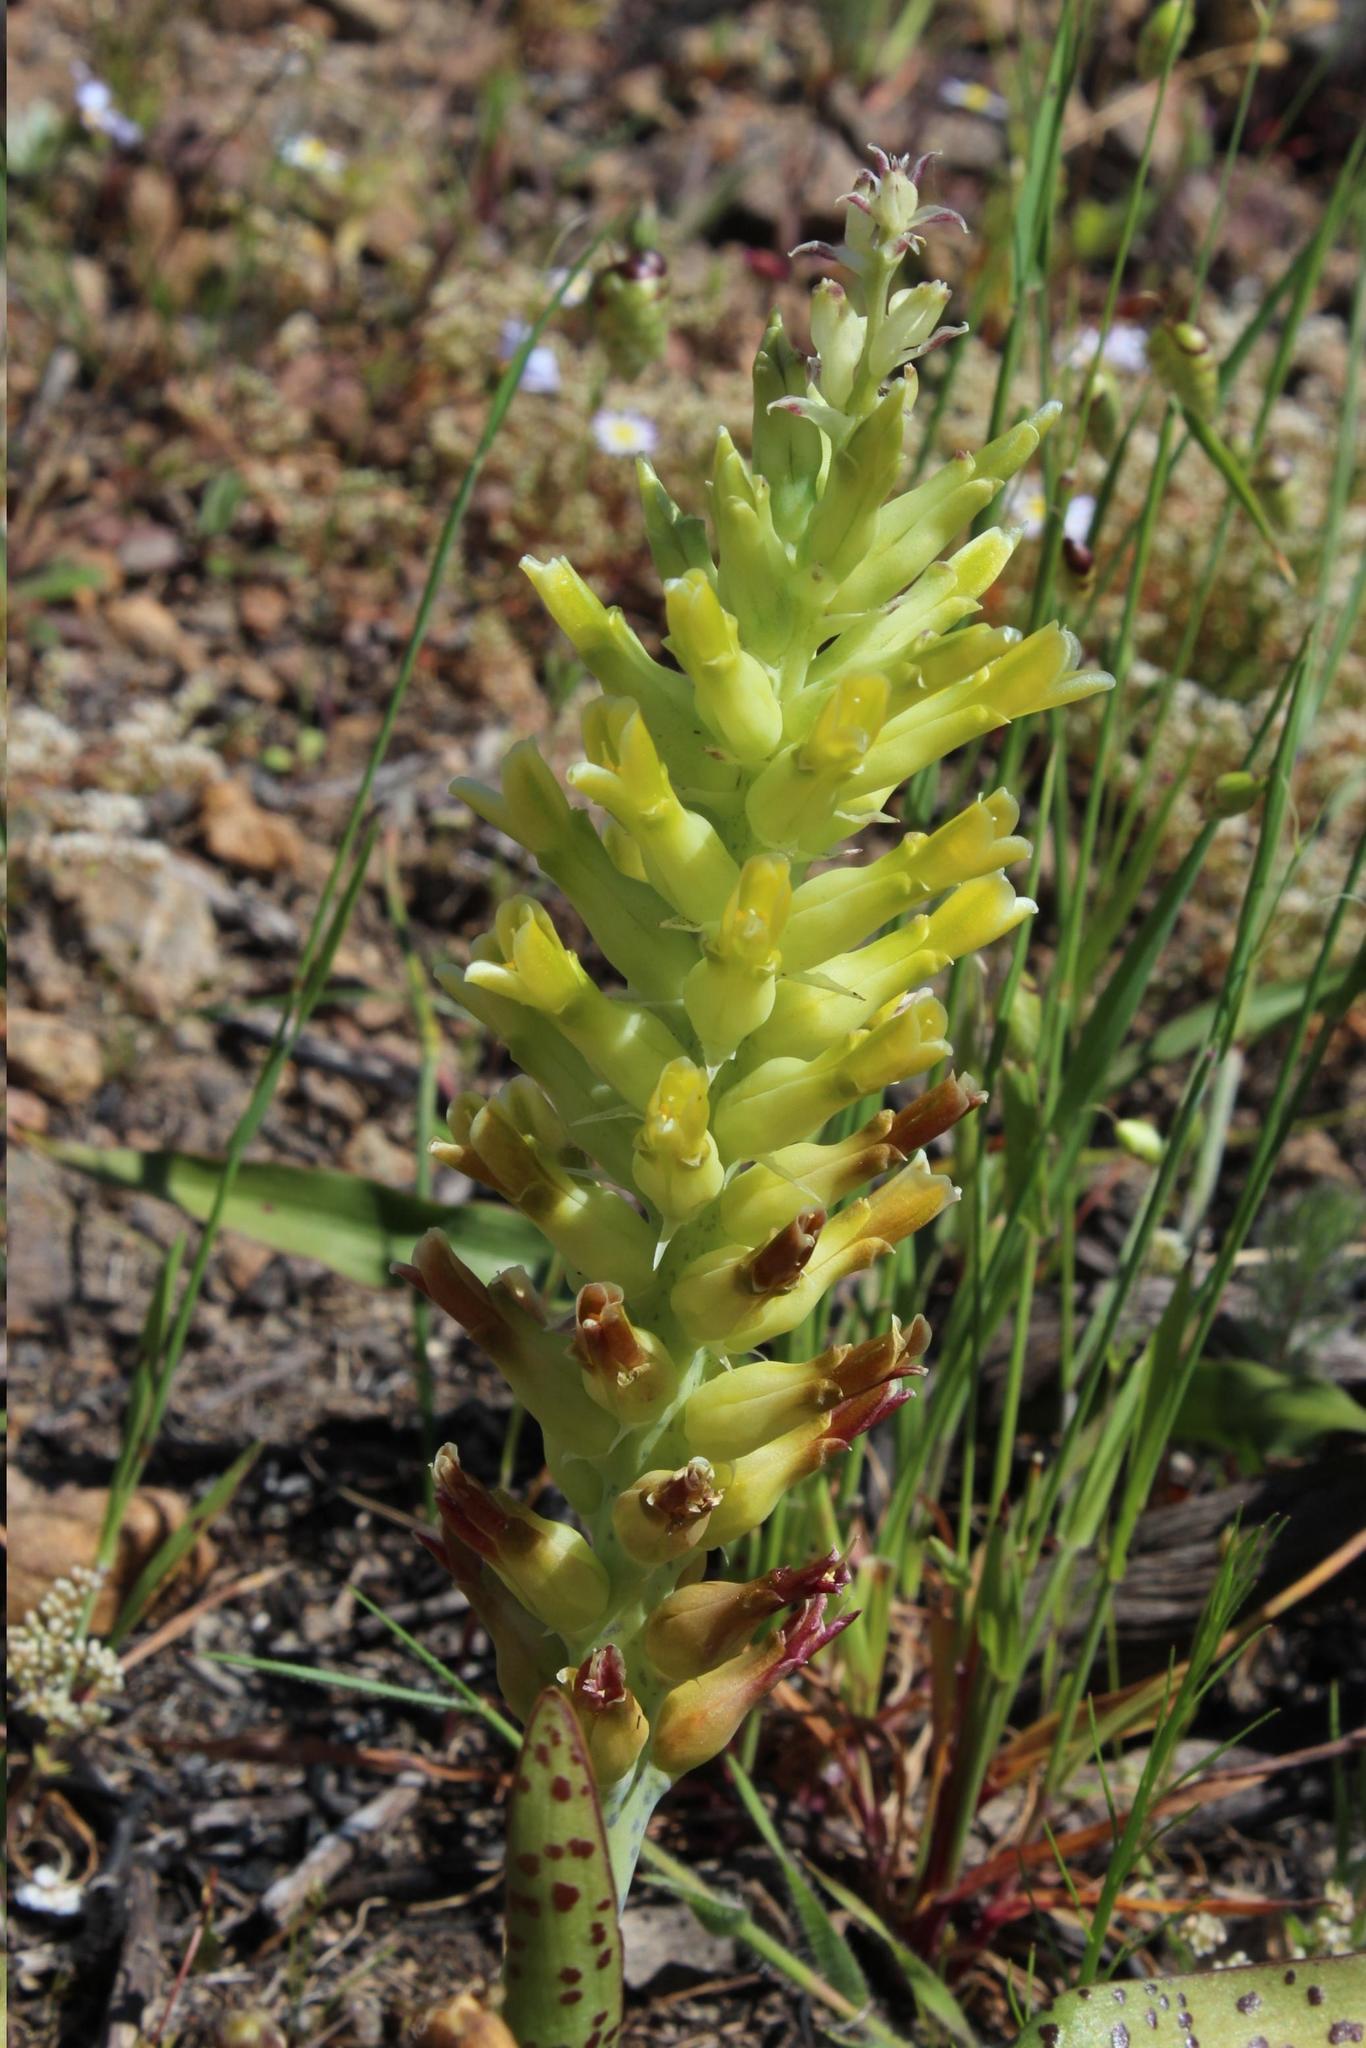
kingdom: Plantae
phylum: Tracheophyta
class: Liliopsida
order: Asparagales
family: Asparagaceae
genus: Lachenalia
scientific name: Lachenalia orchioides
